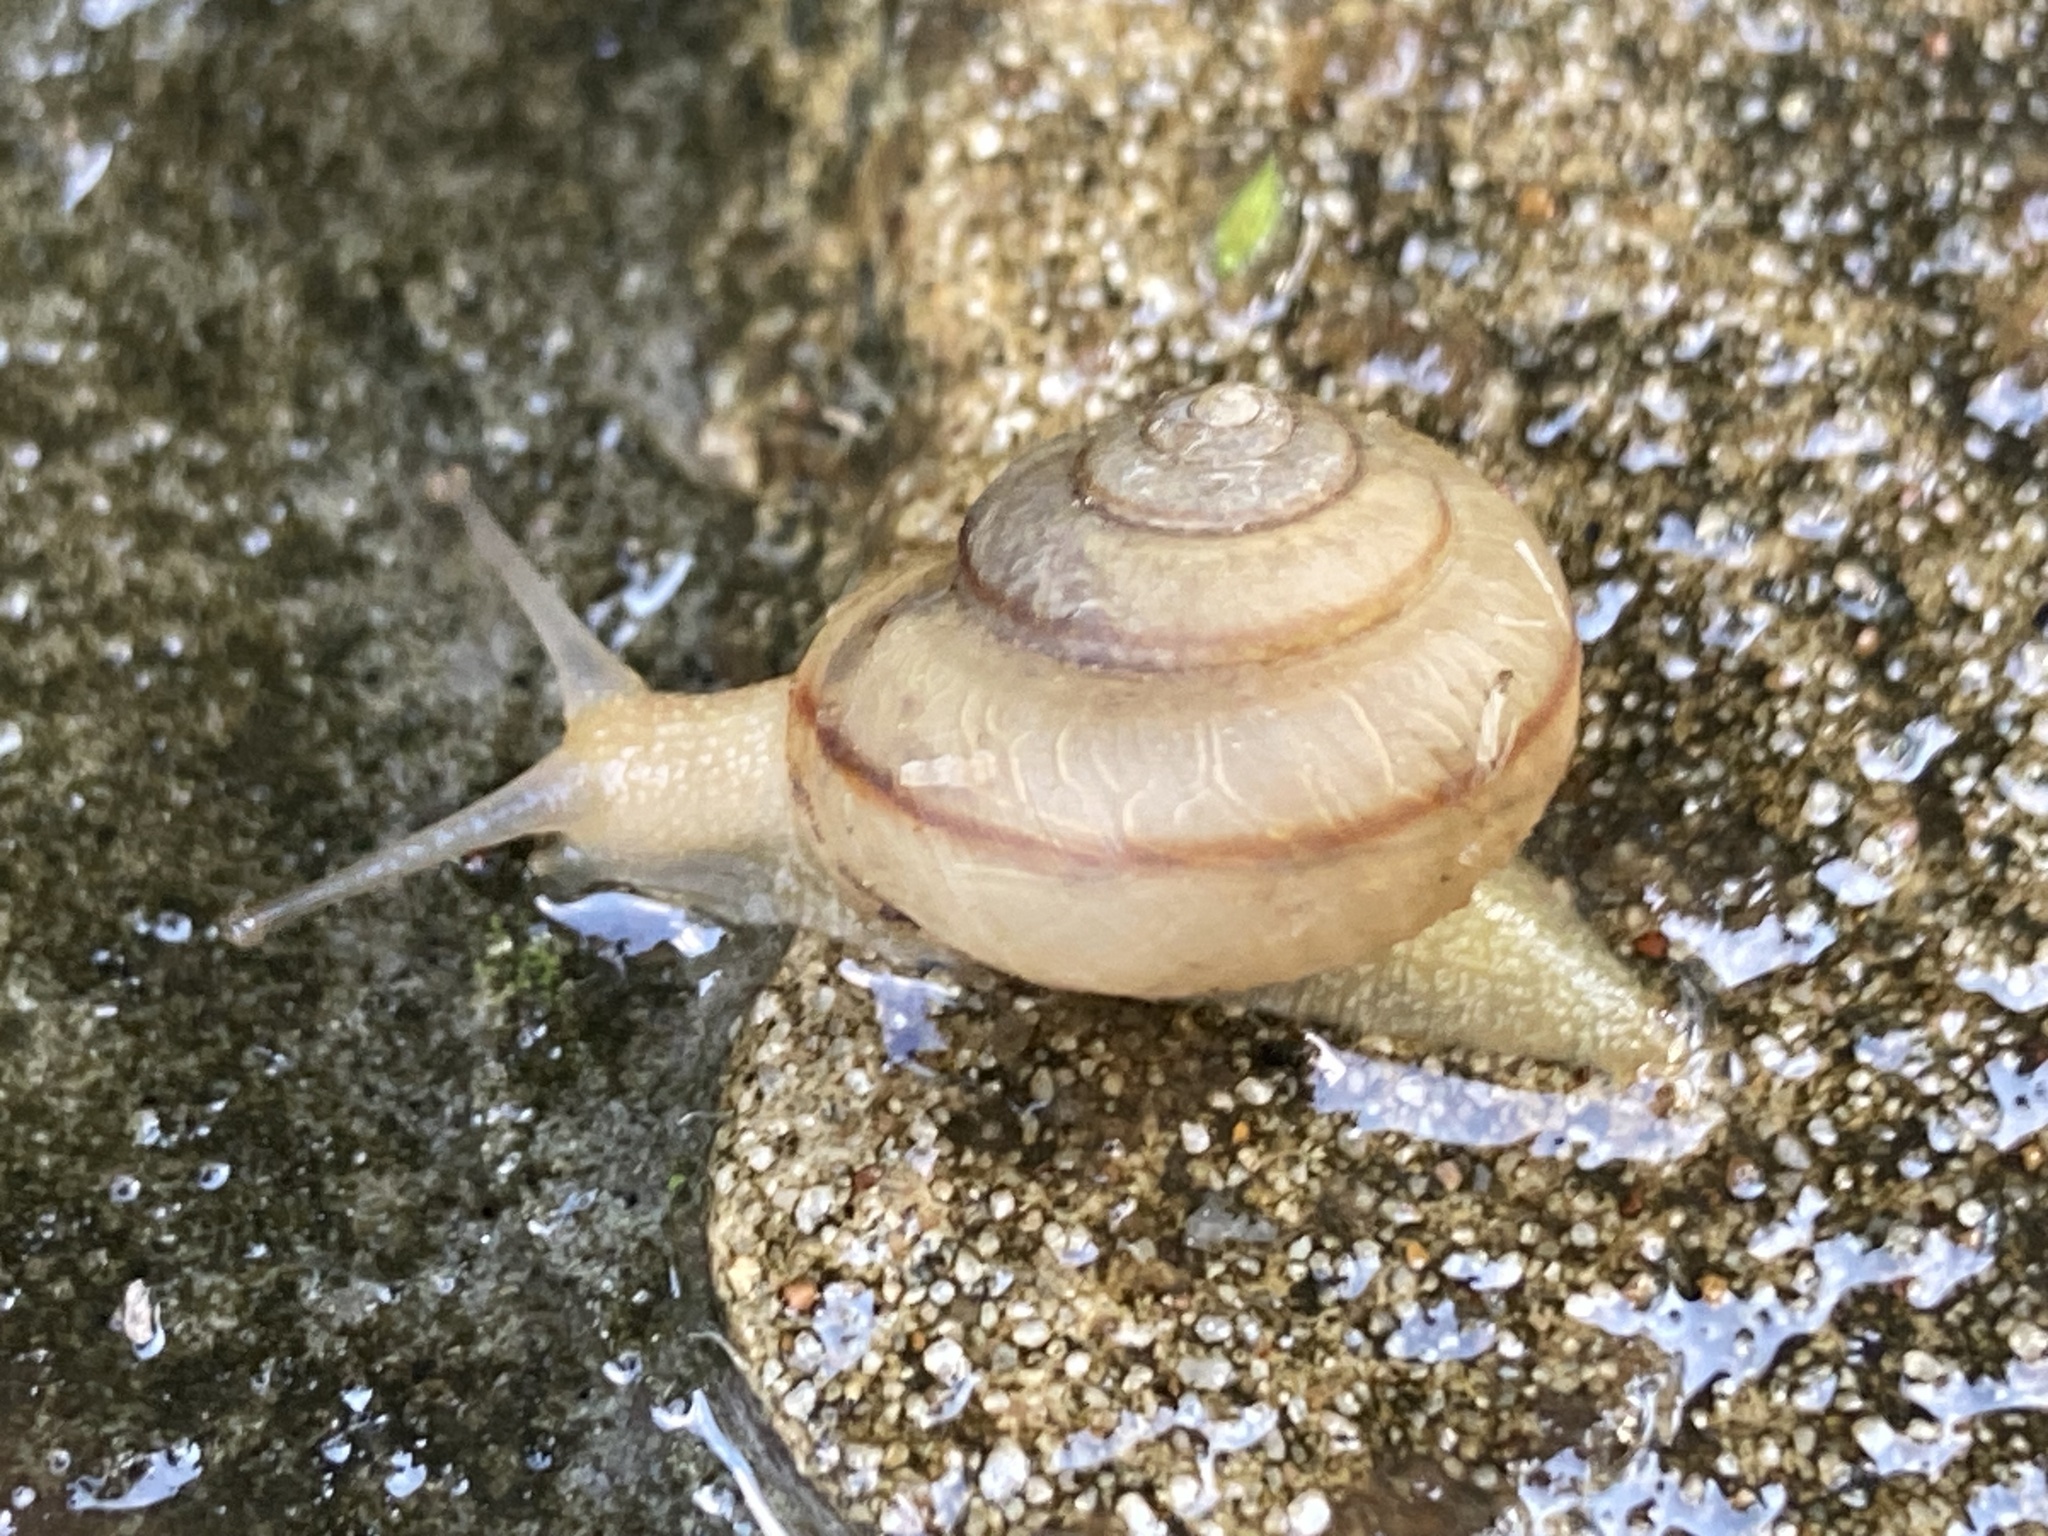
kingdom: Animalia
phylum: Mollusca
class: Gastropoda
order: Stylommatophora
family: Camaenidae
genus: Bradybaena
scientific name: Bradybaena similaris
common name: Asian trampsnail
